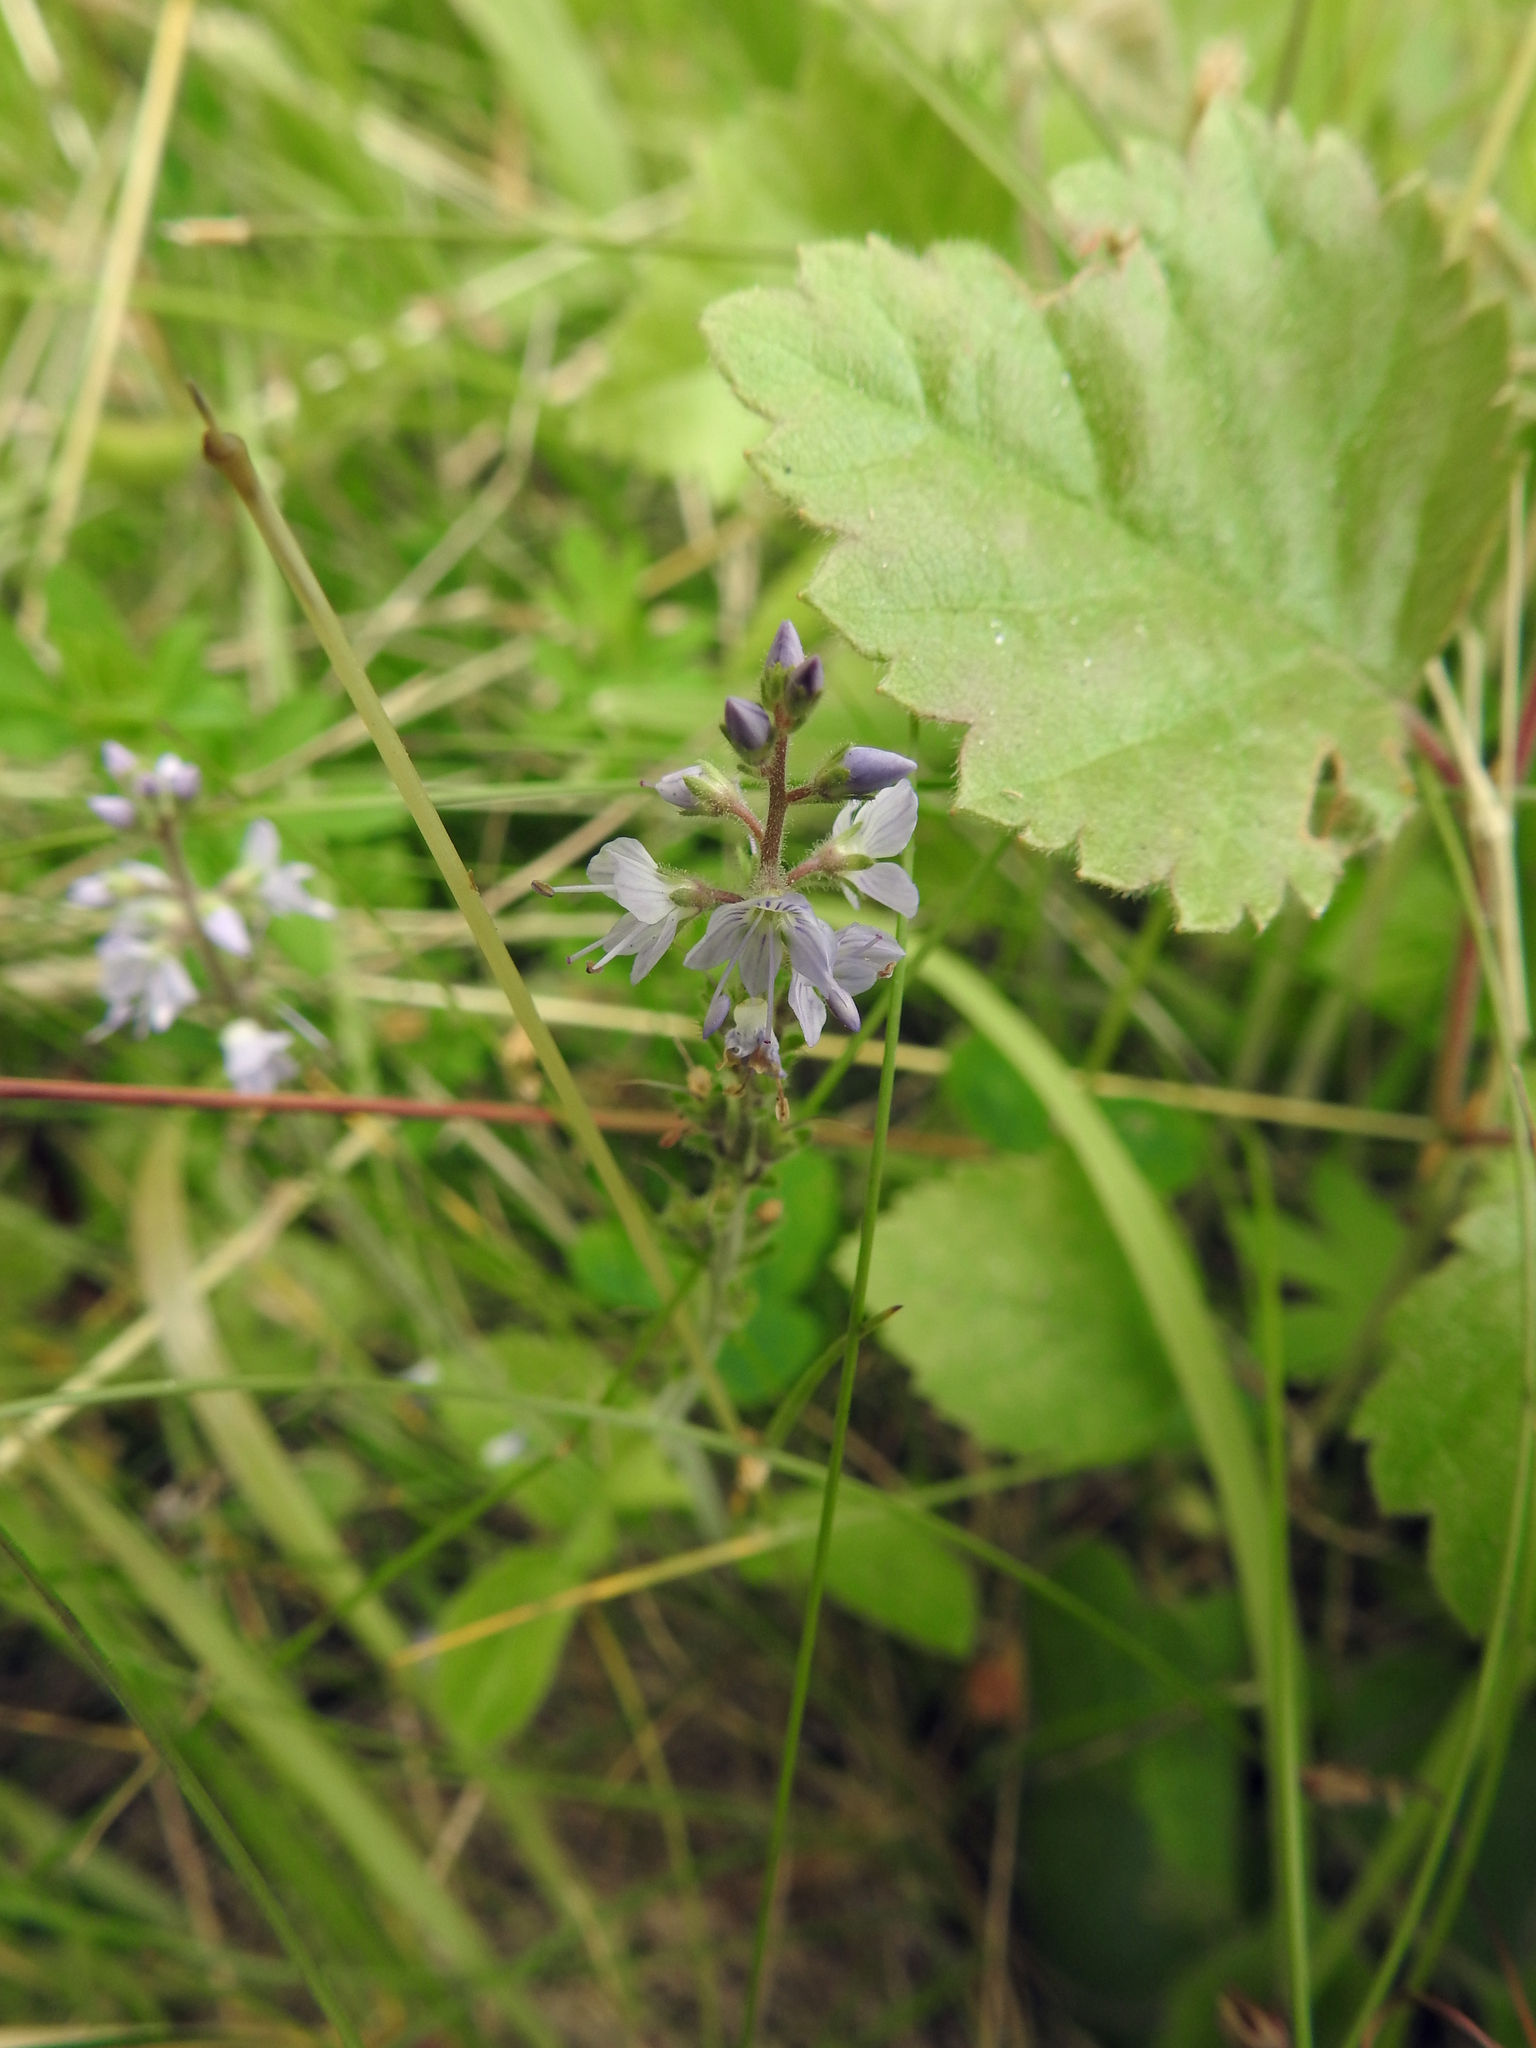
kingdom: Plantae
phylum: Tracheophyta
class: Magnoliopsida
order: Lamiales
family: Plantaginaceae
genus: Veronica
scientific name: Veronica officinalis
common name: Common speedwell
